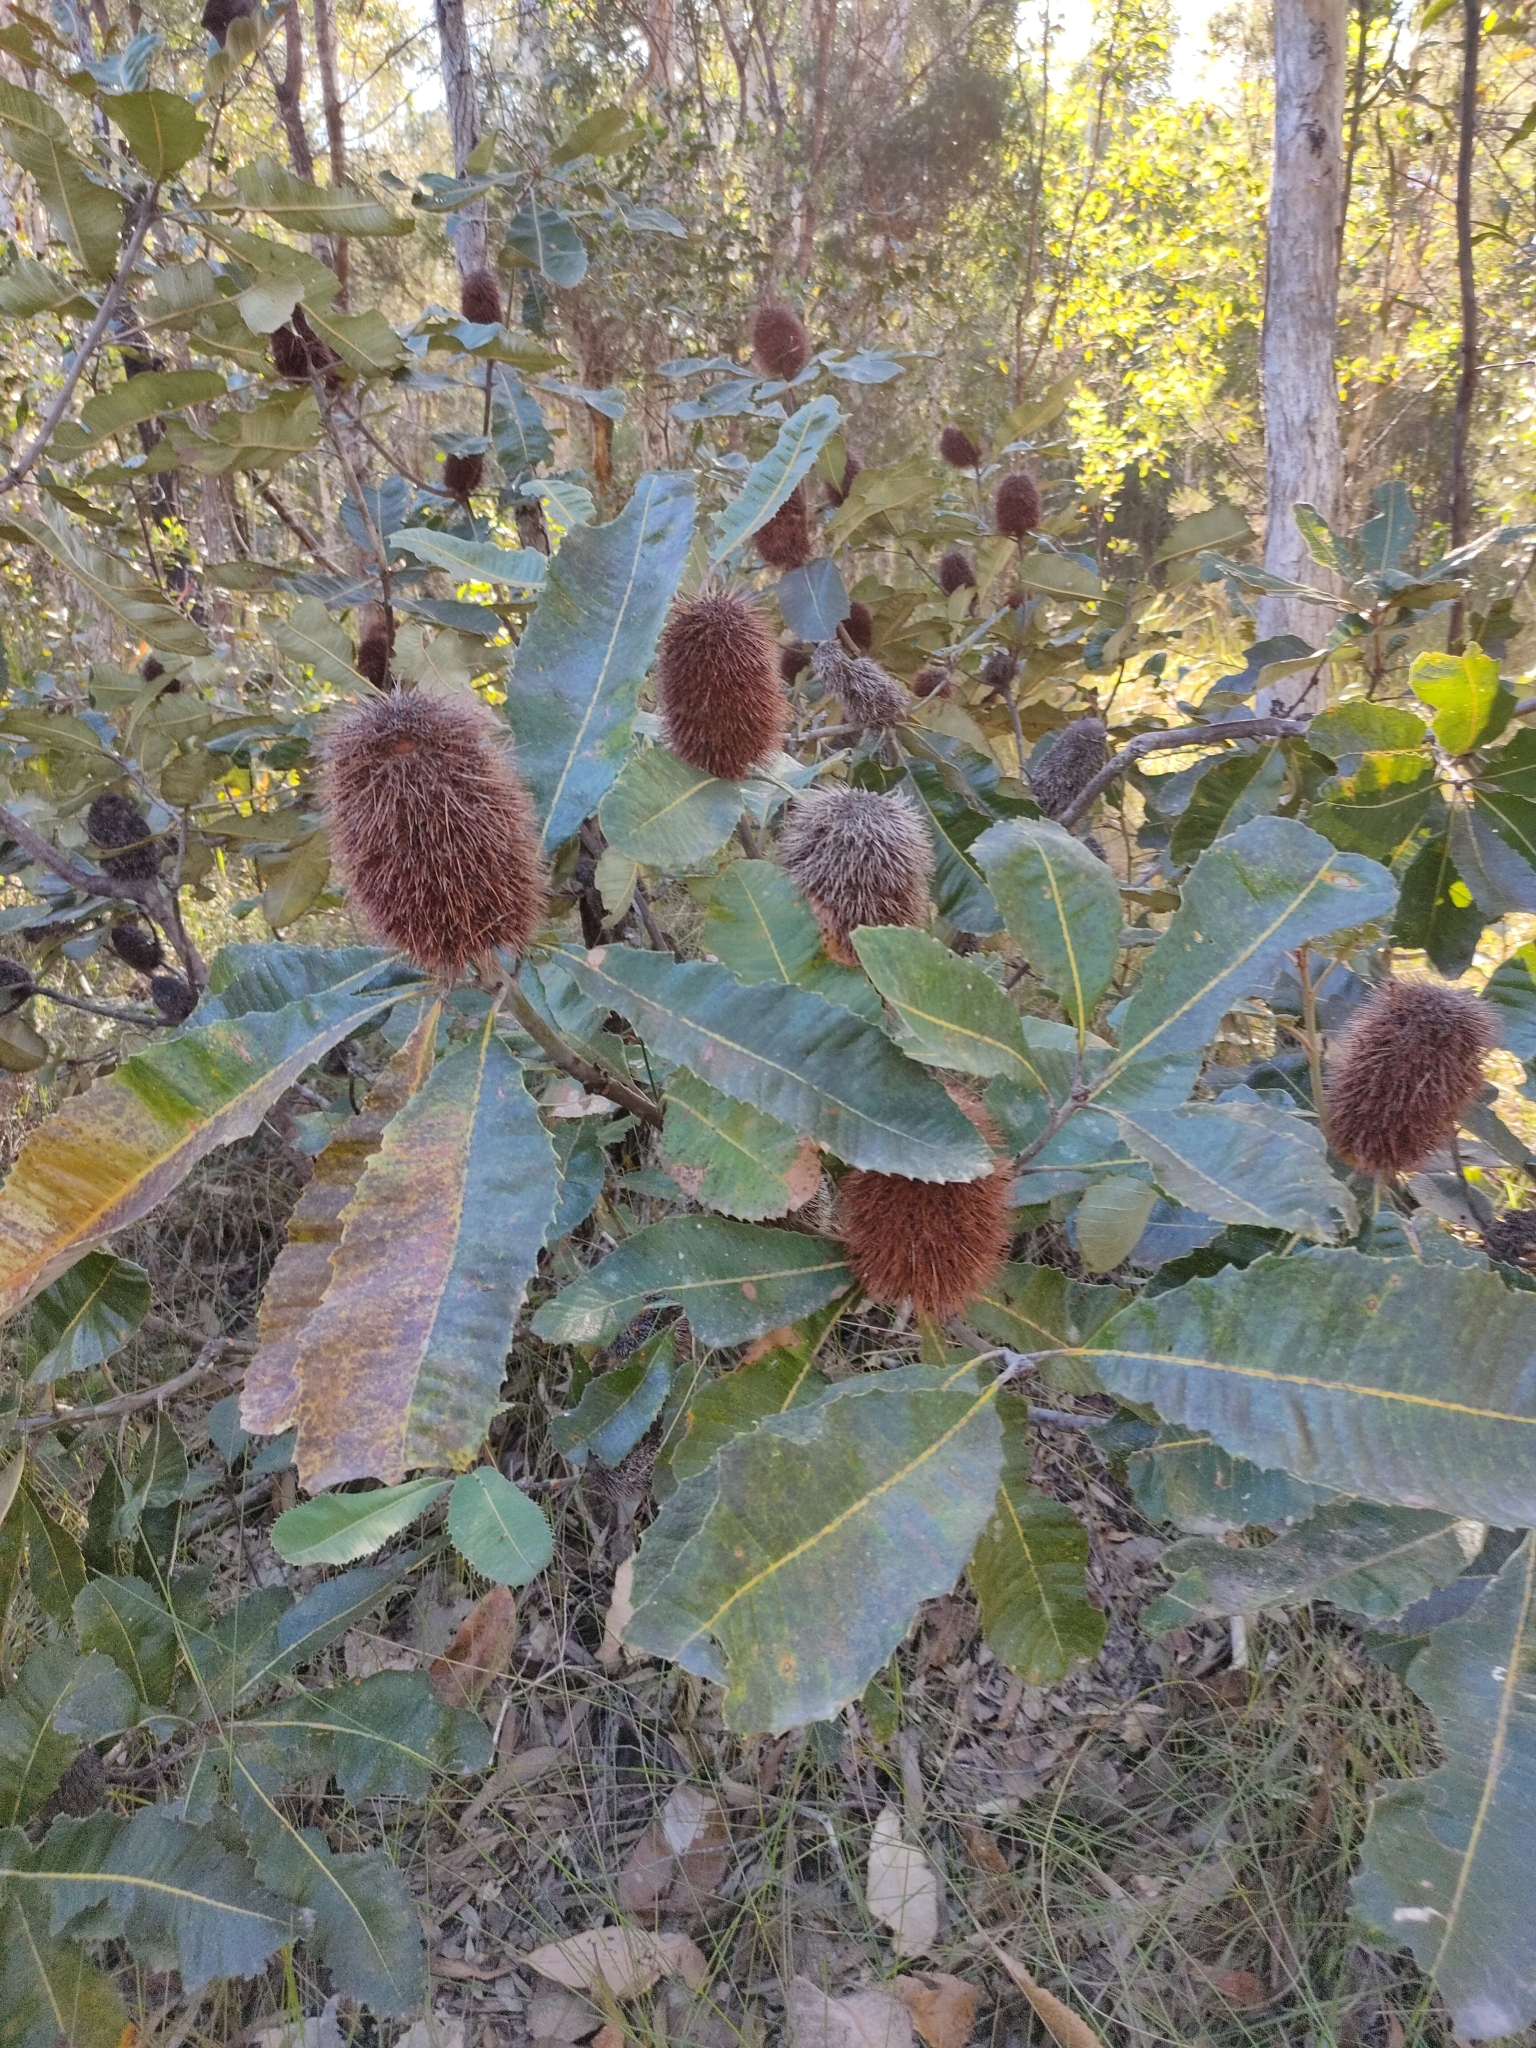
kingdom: Plantae
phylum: Tracheophyta
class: Magnoliopsida
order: Proteales
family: Proteaceae
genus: Banksia
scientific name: Banksia robur
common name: Broadleaf banksia
